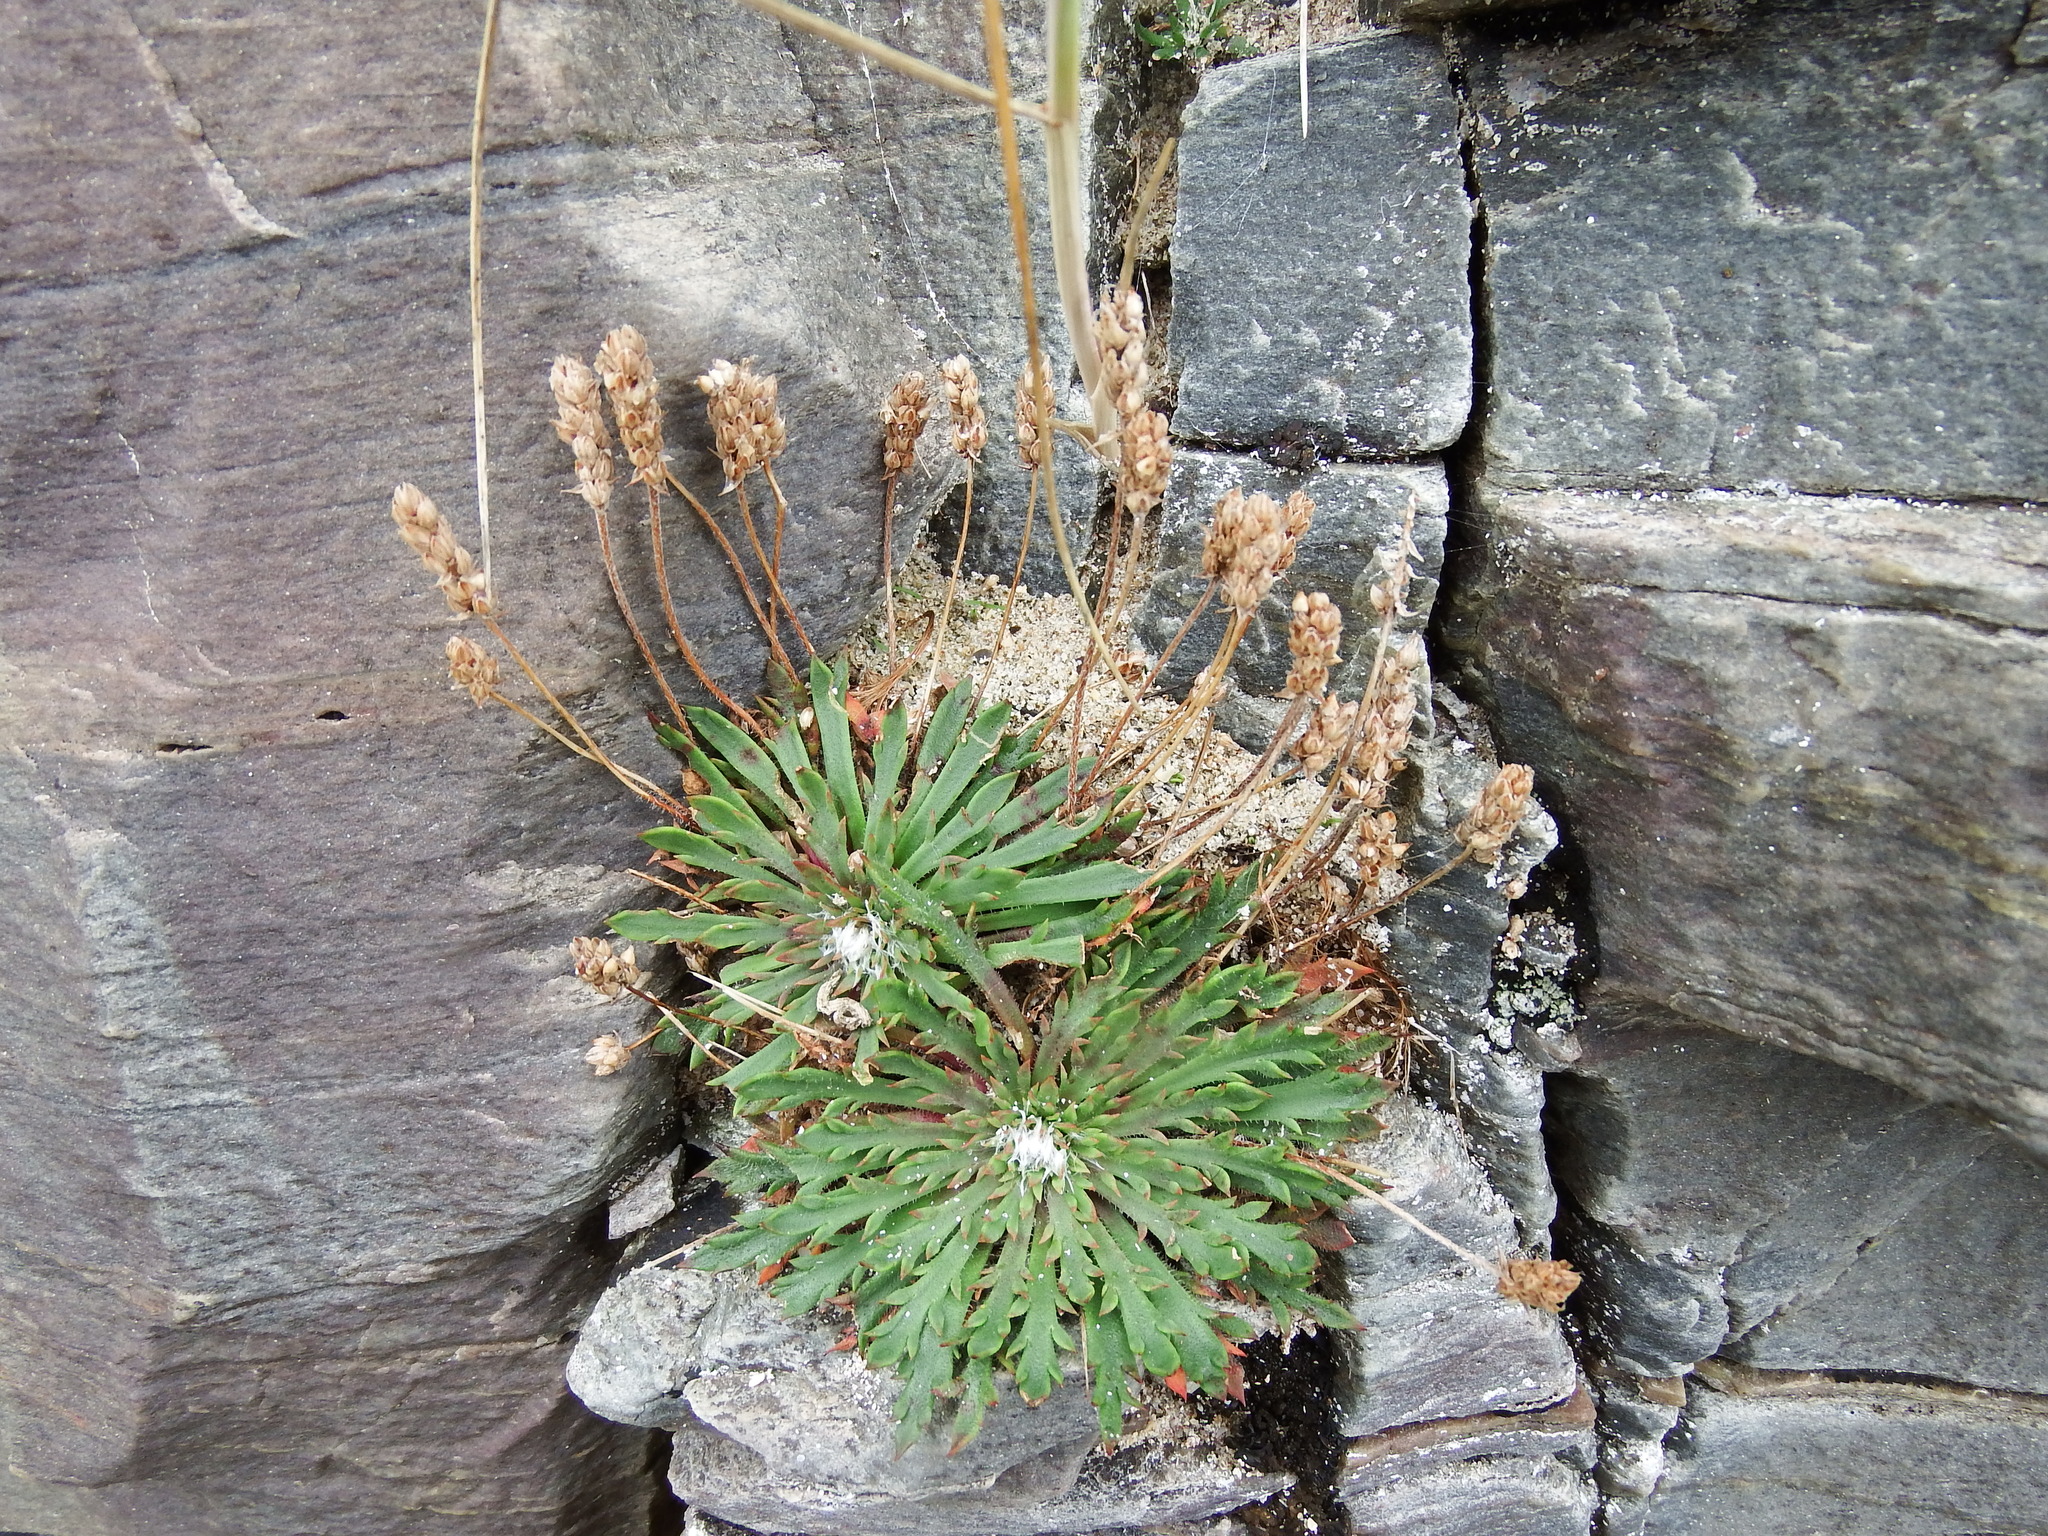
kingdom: Plantae
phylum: Tracheophyta
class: Magnoliopsida
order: Lamiales
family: Plantaginaceae
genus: Plantago
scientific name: Plantago coronopus
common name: Buck's-horn plantain
